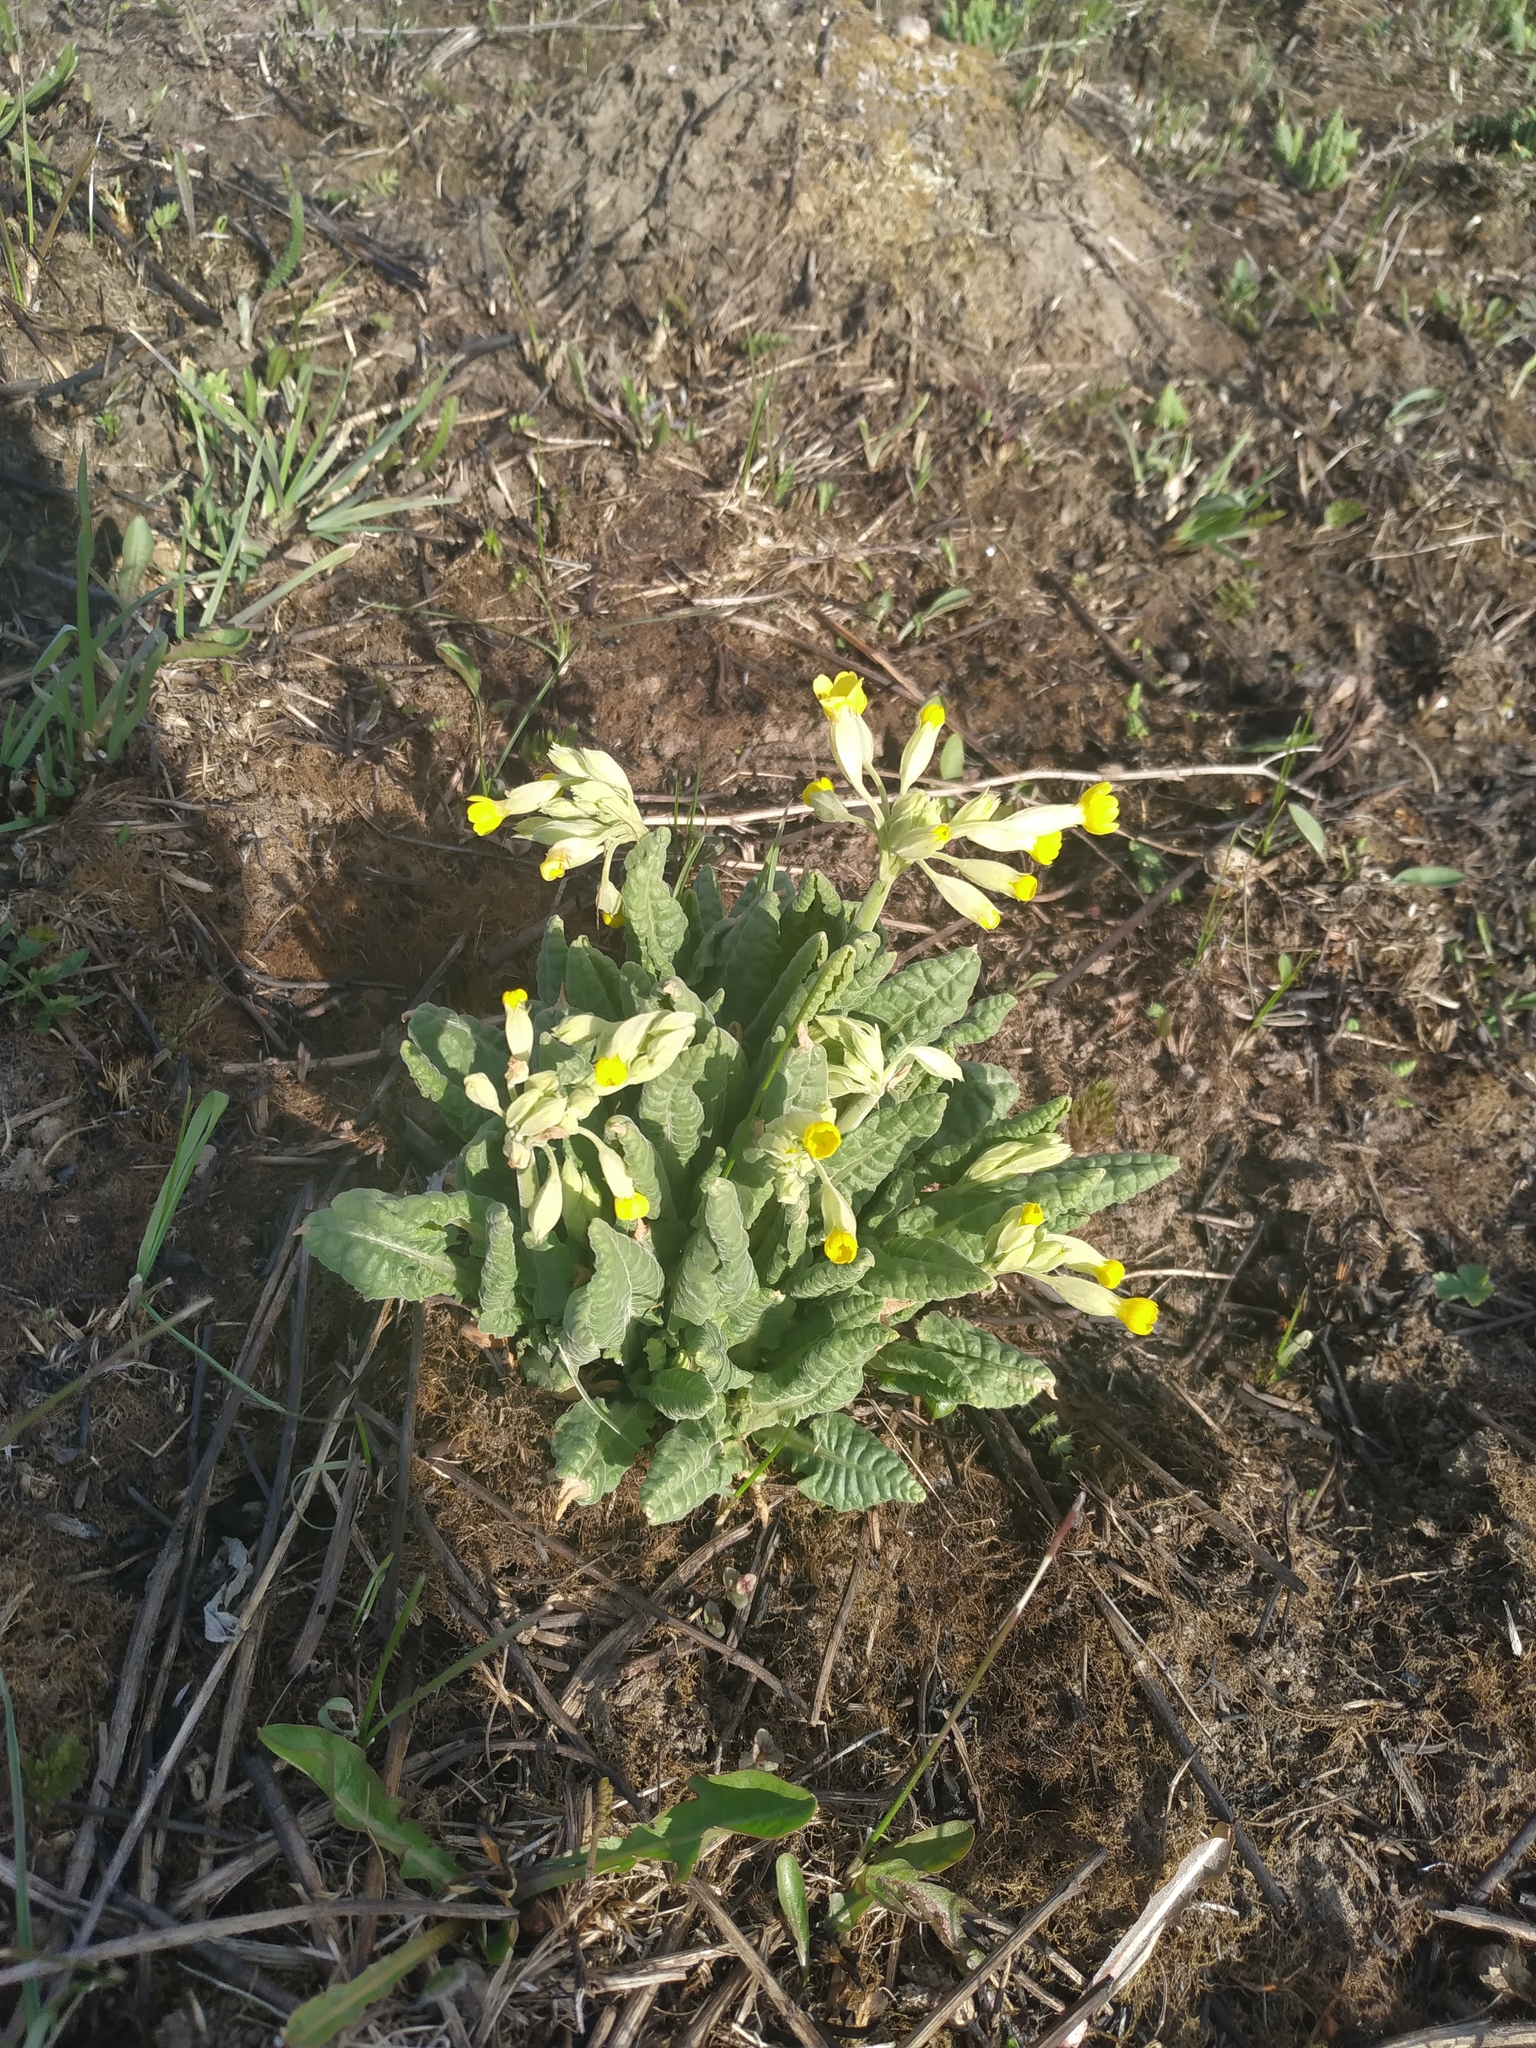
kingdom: Plantae
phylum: Tracheophyta
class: Magnoliopsida
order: Ericales
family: Primulaceae
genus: Primula
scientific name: Primula veris
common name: Cowslip
